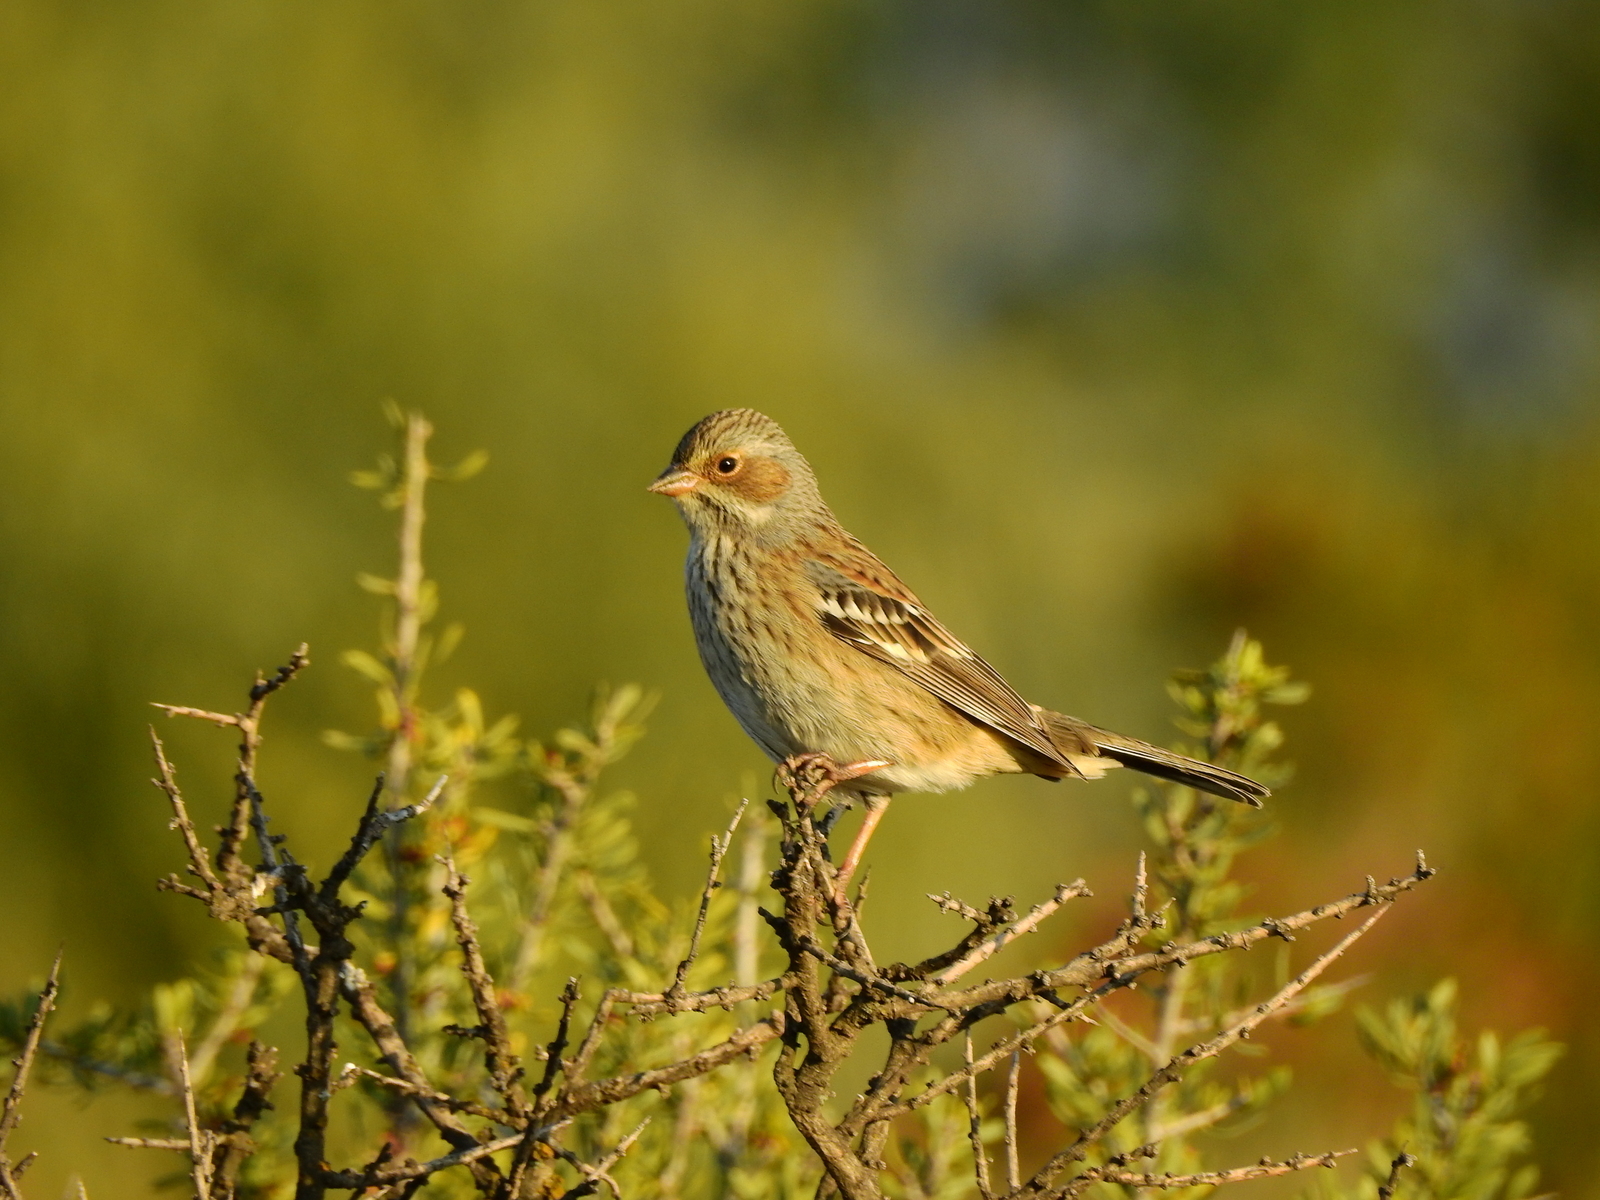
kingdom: Animalia
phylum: Chordata
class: Aves
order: Passeriformes
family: Thraupidae
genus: Rhopospina
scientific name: Rhopospina fruticeti
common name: Mourning sierra finch
